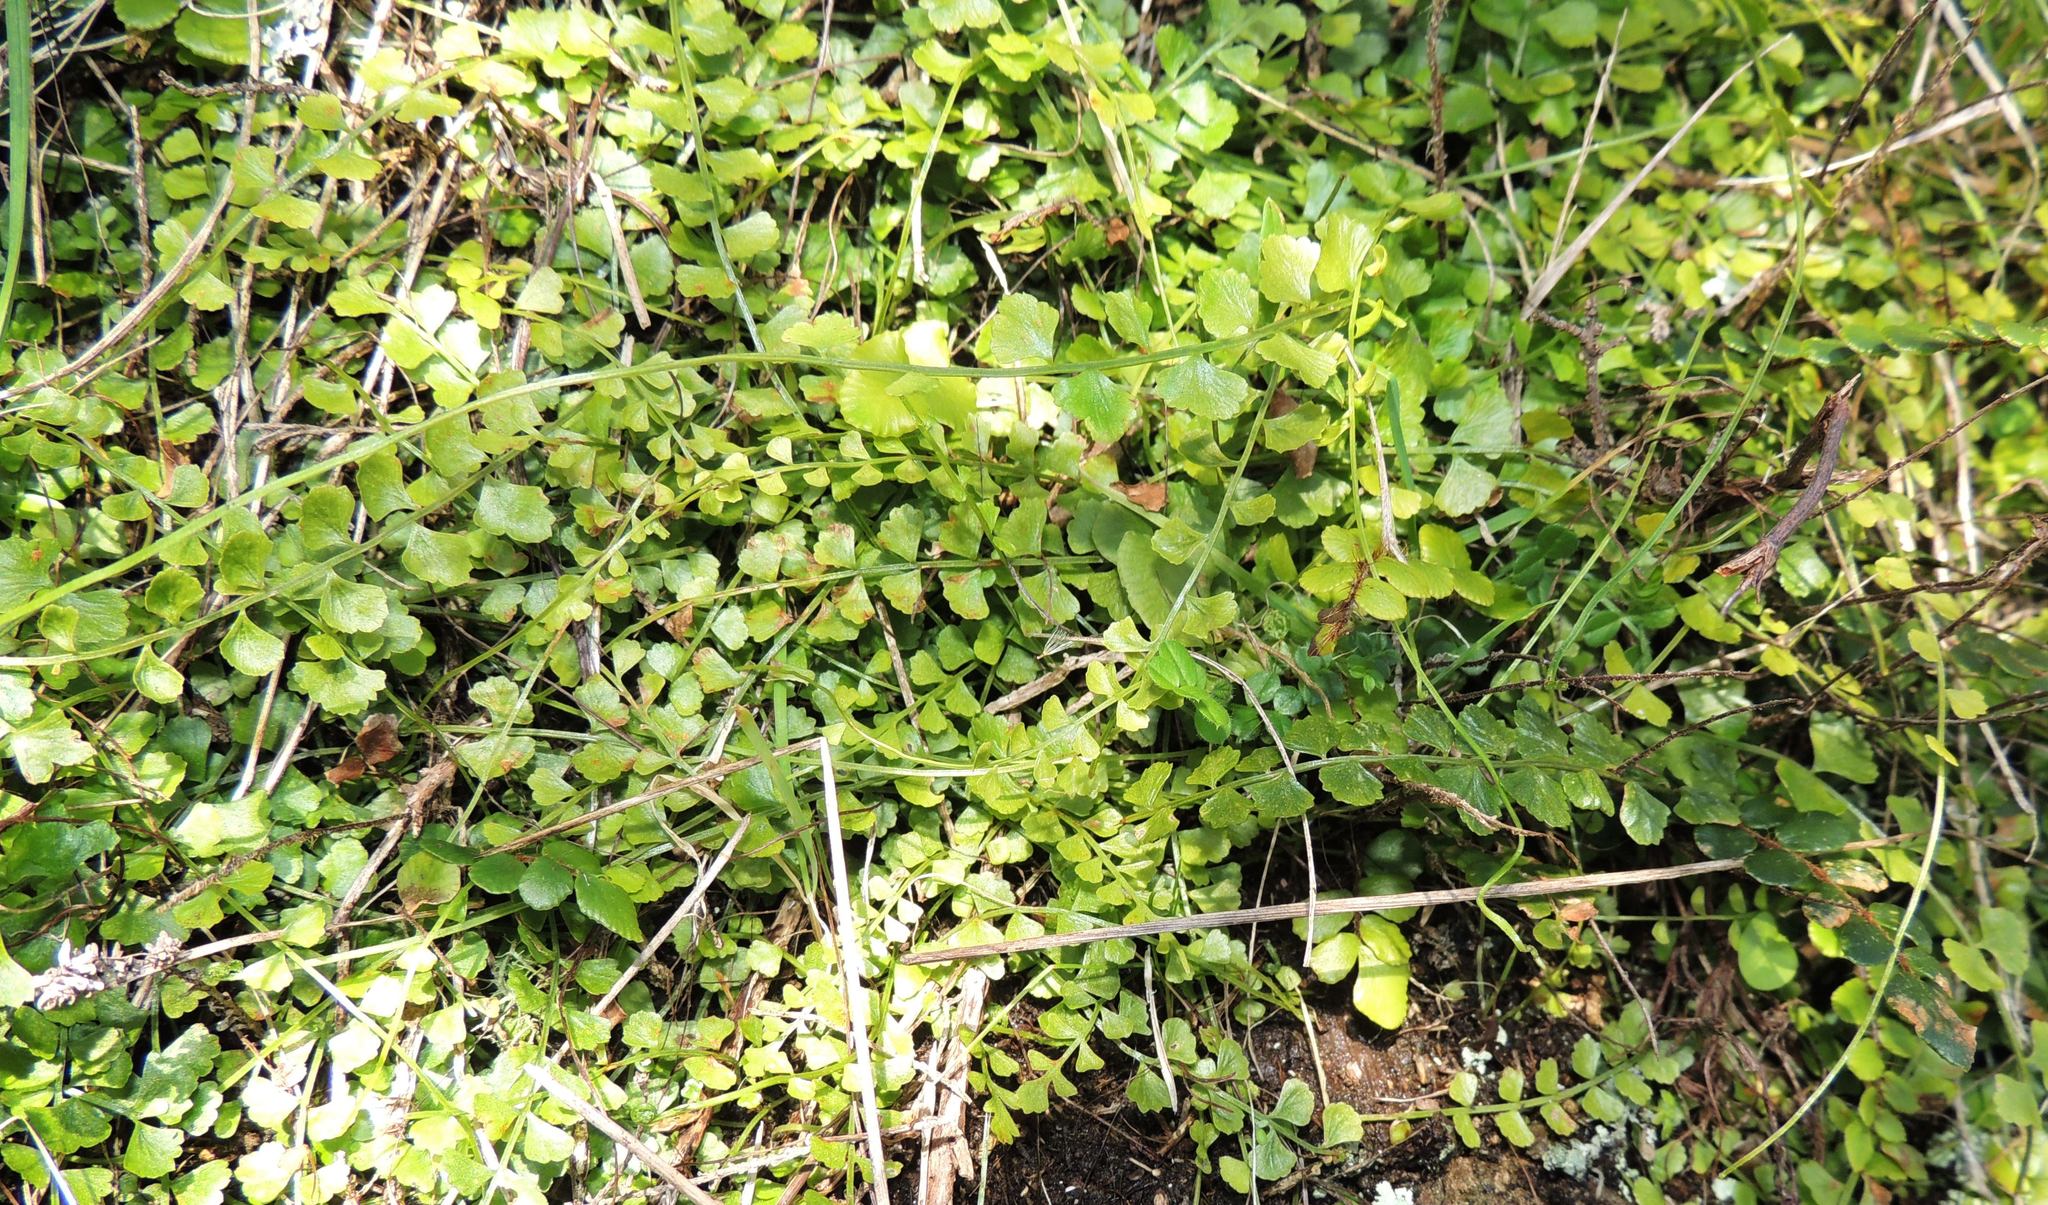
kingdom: Plantae
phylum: Tracheophyta
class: Polypodiopsida
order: Polypodiales
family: Aspleniaceae
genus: Asplenium
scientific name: Asplenium flabellifolium
